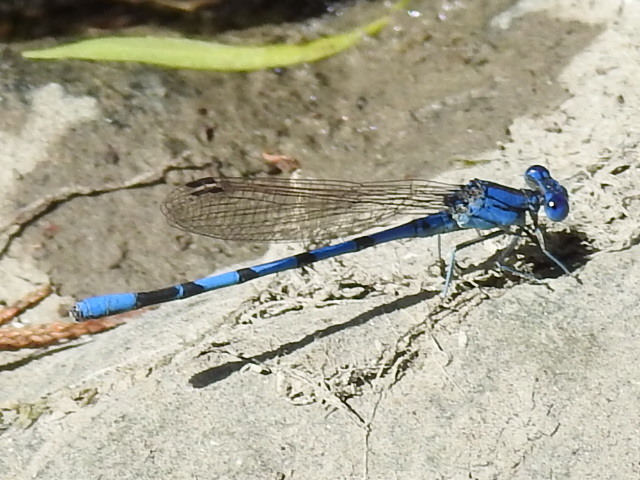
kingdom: Animalia
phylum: Arthropoda
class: Insecta
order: Odonata
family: Coenagrionidae
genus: Argia
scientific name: Argia nahuana
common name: Aztec dancer
